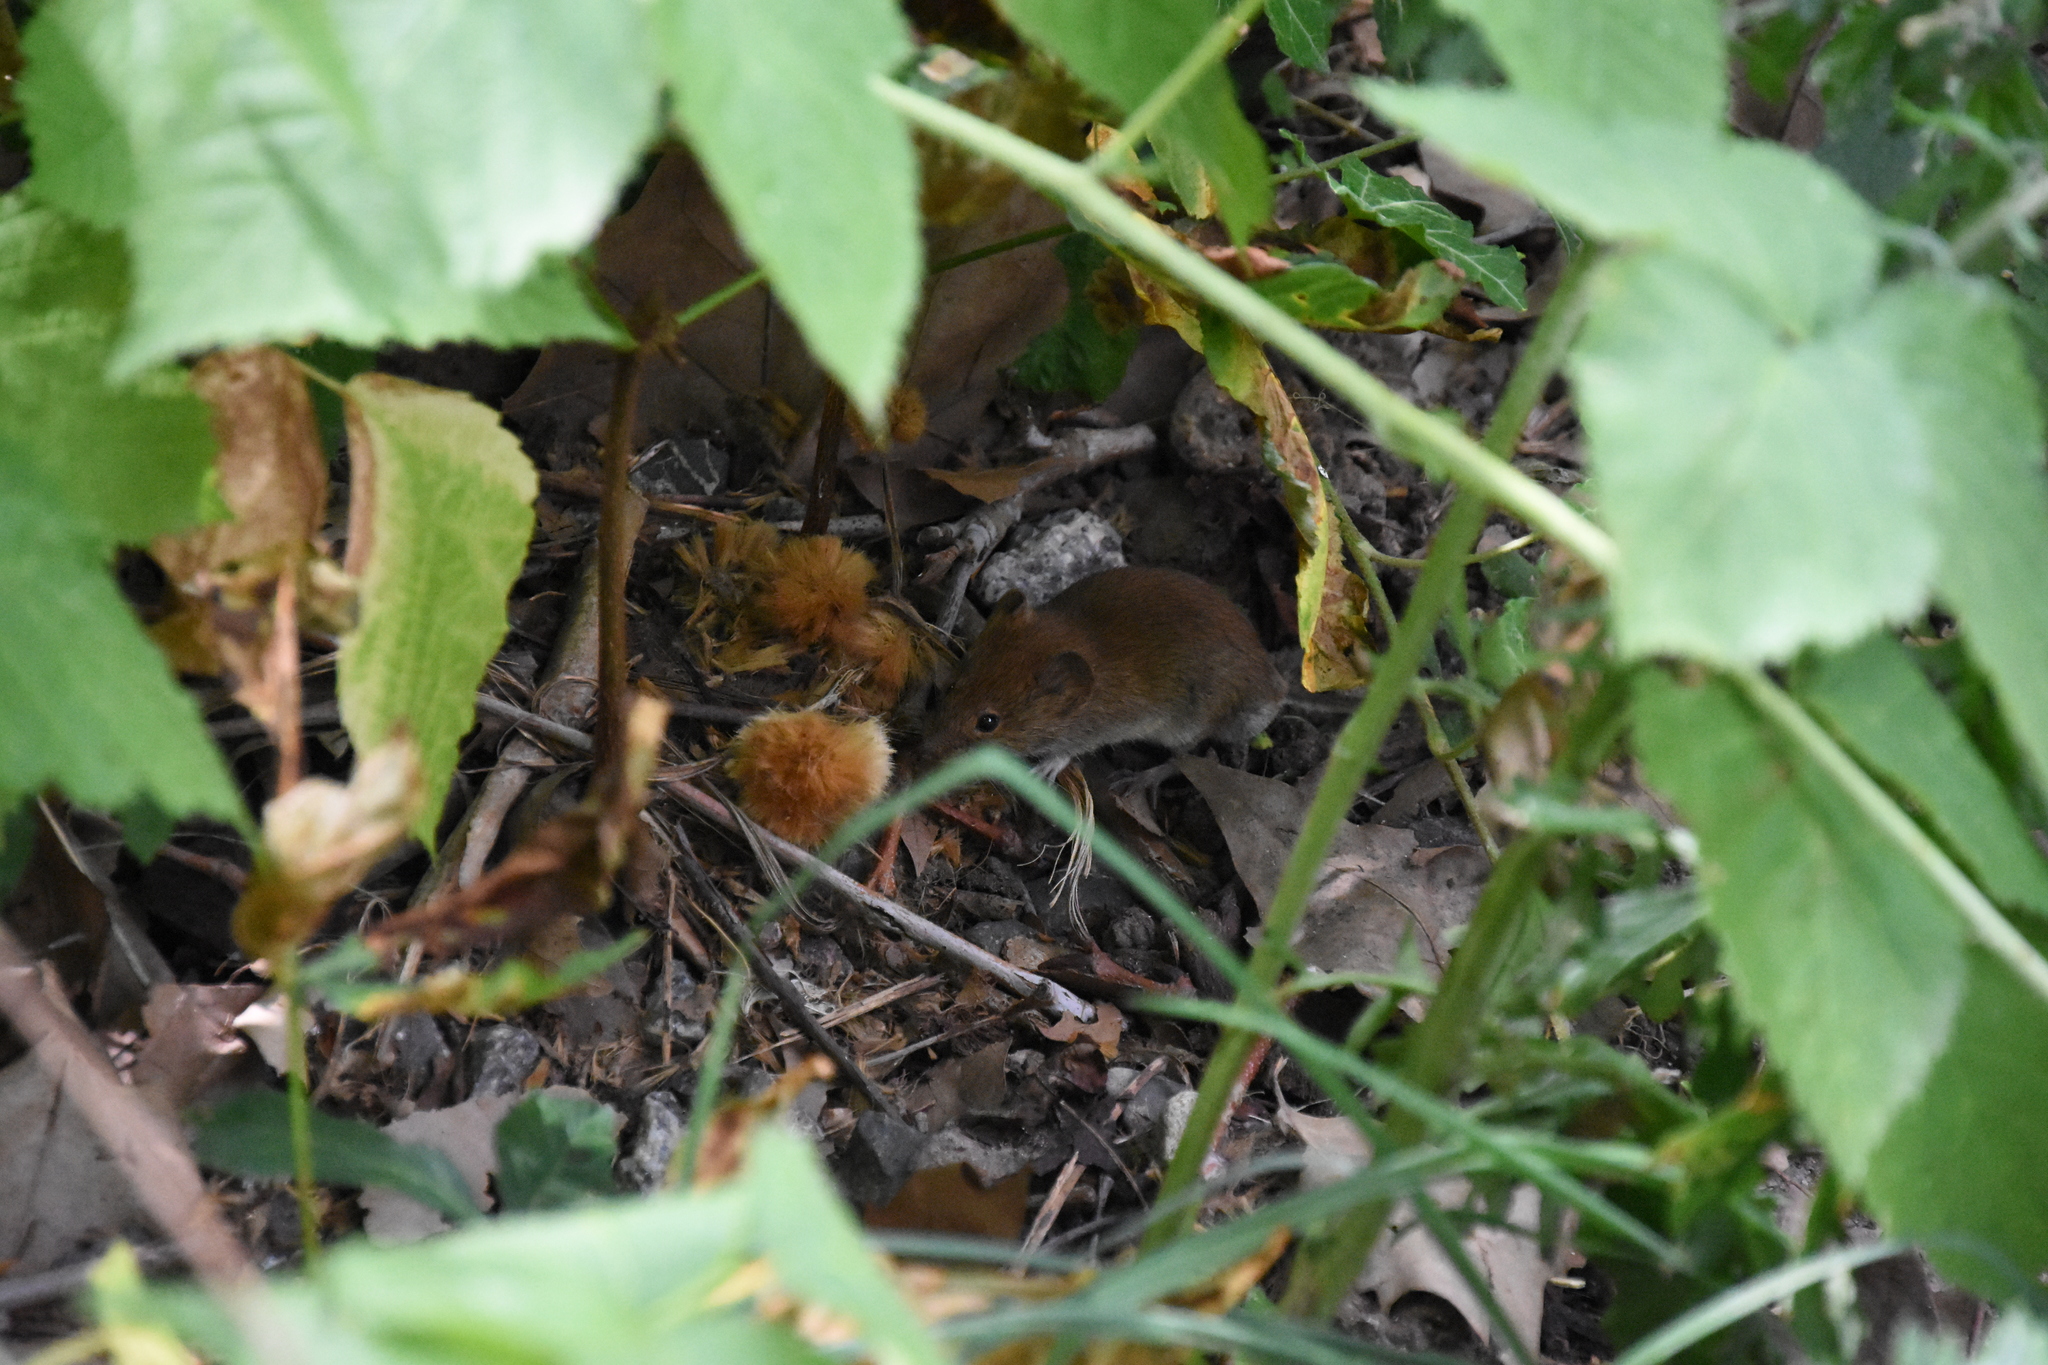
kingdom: Animalia
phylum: Chordata
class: Mammalia
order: Rodentia
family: Cricetidae
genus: Myodes
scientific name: Myodes glareolus
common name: Bank vole
